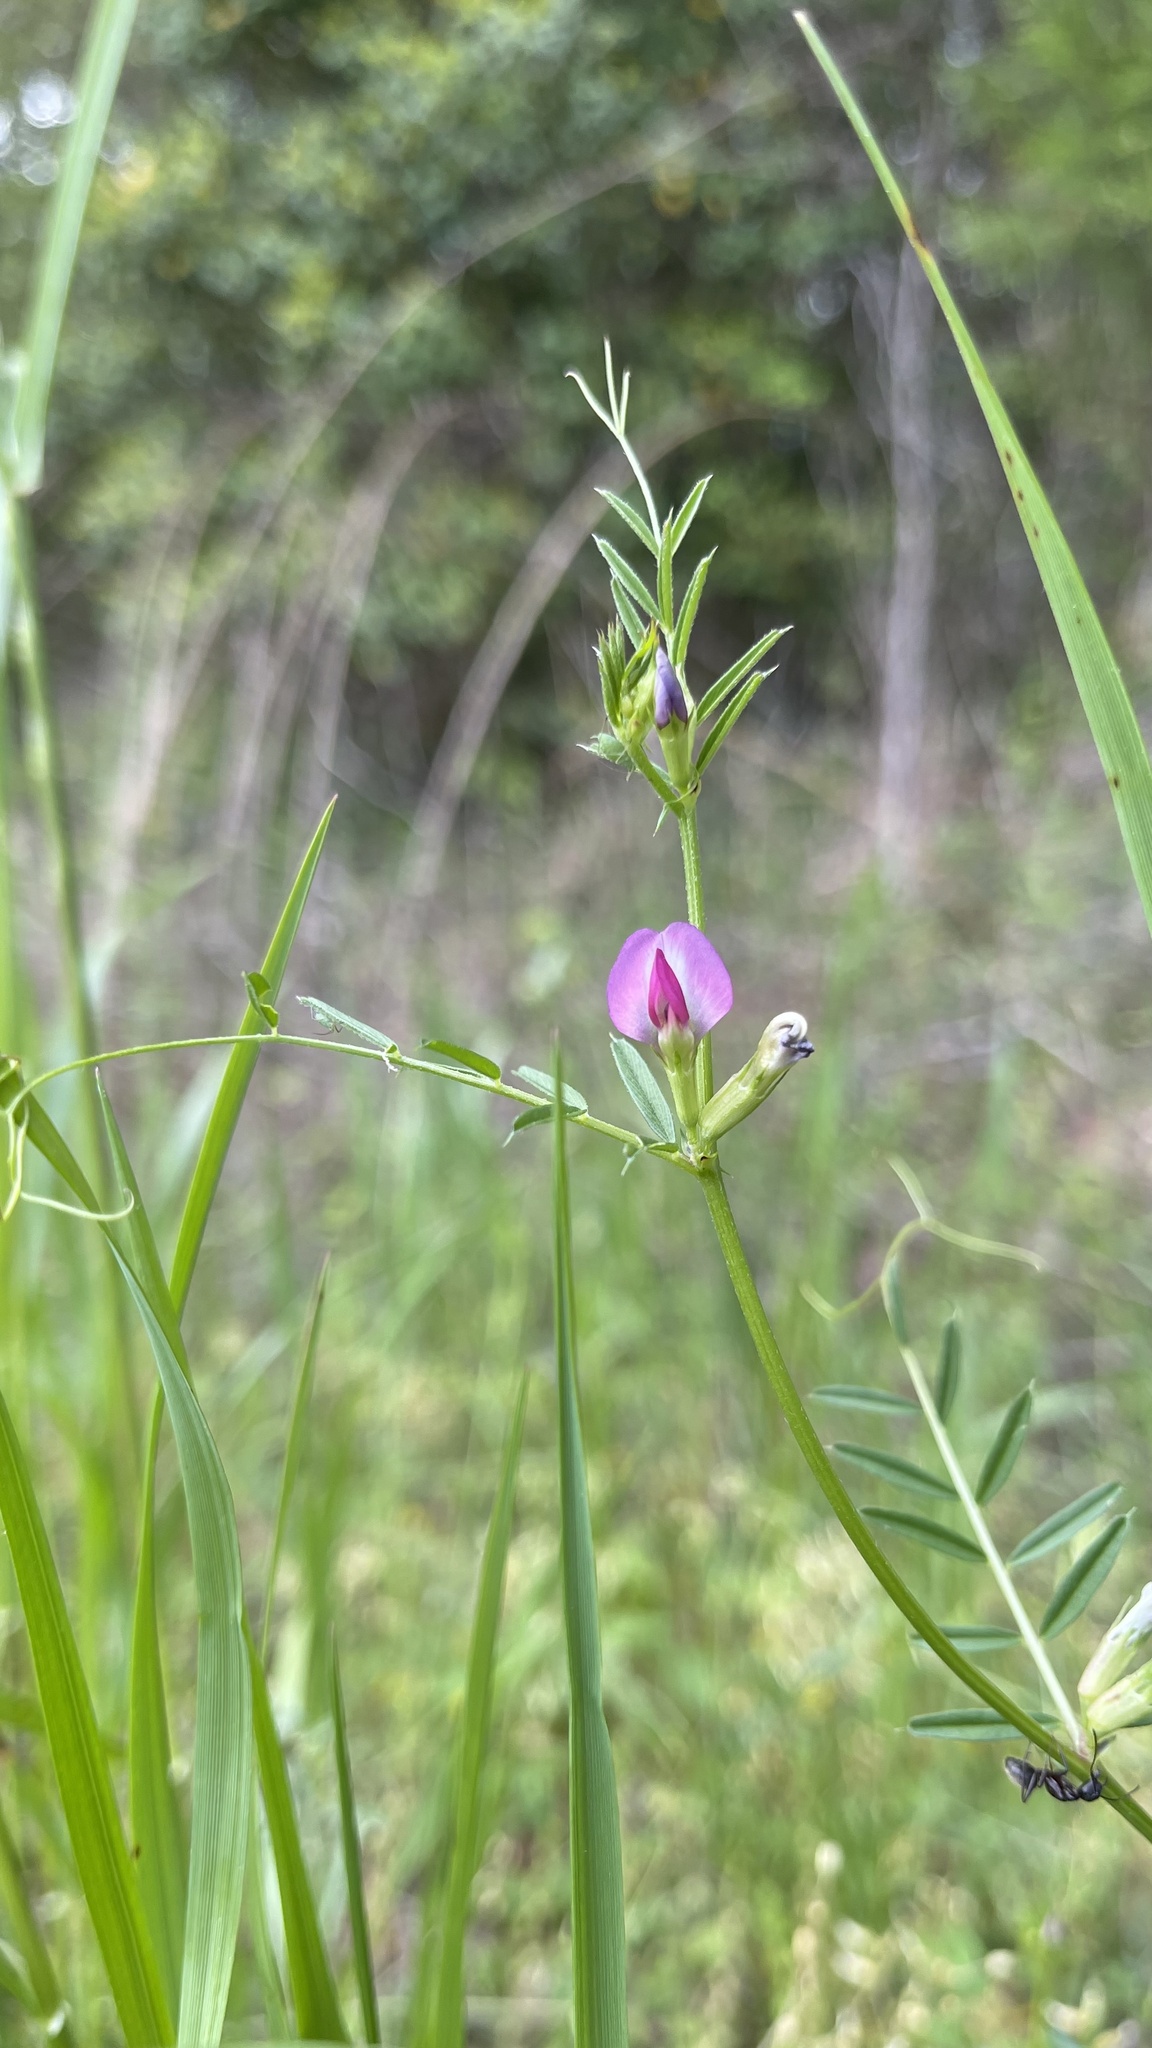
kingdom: Plantae
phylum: Tracheophyta
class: Magnoliopsida
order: Fabales
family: Fabaceae
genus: Vicia
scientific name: Vicia sativa
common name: Garden vetch
